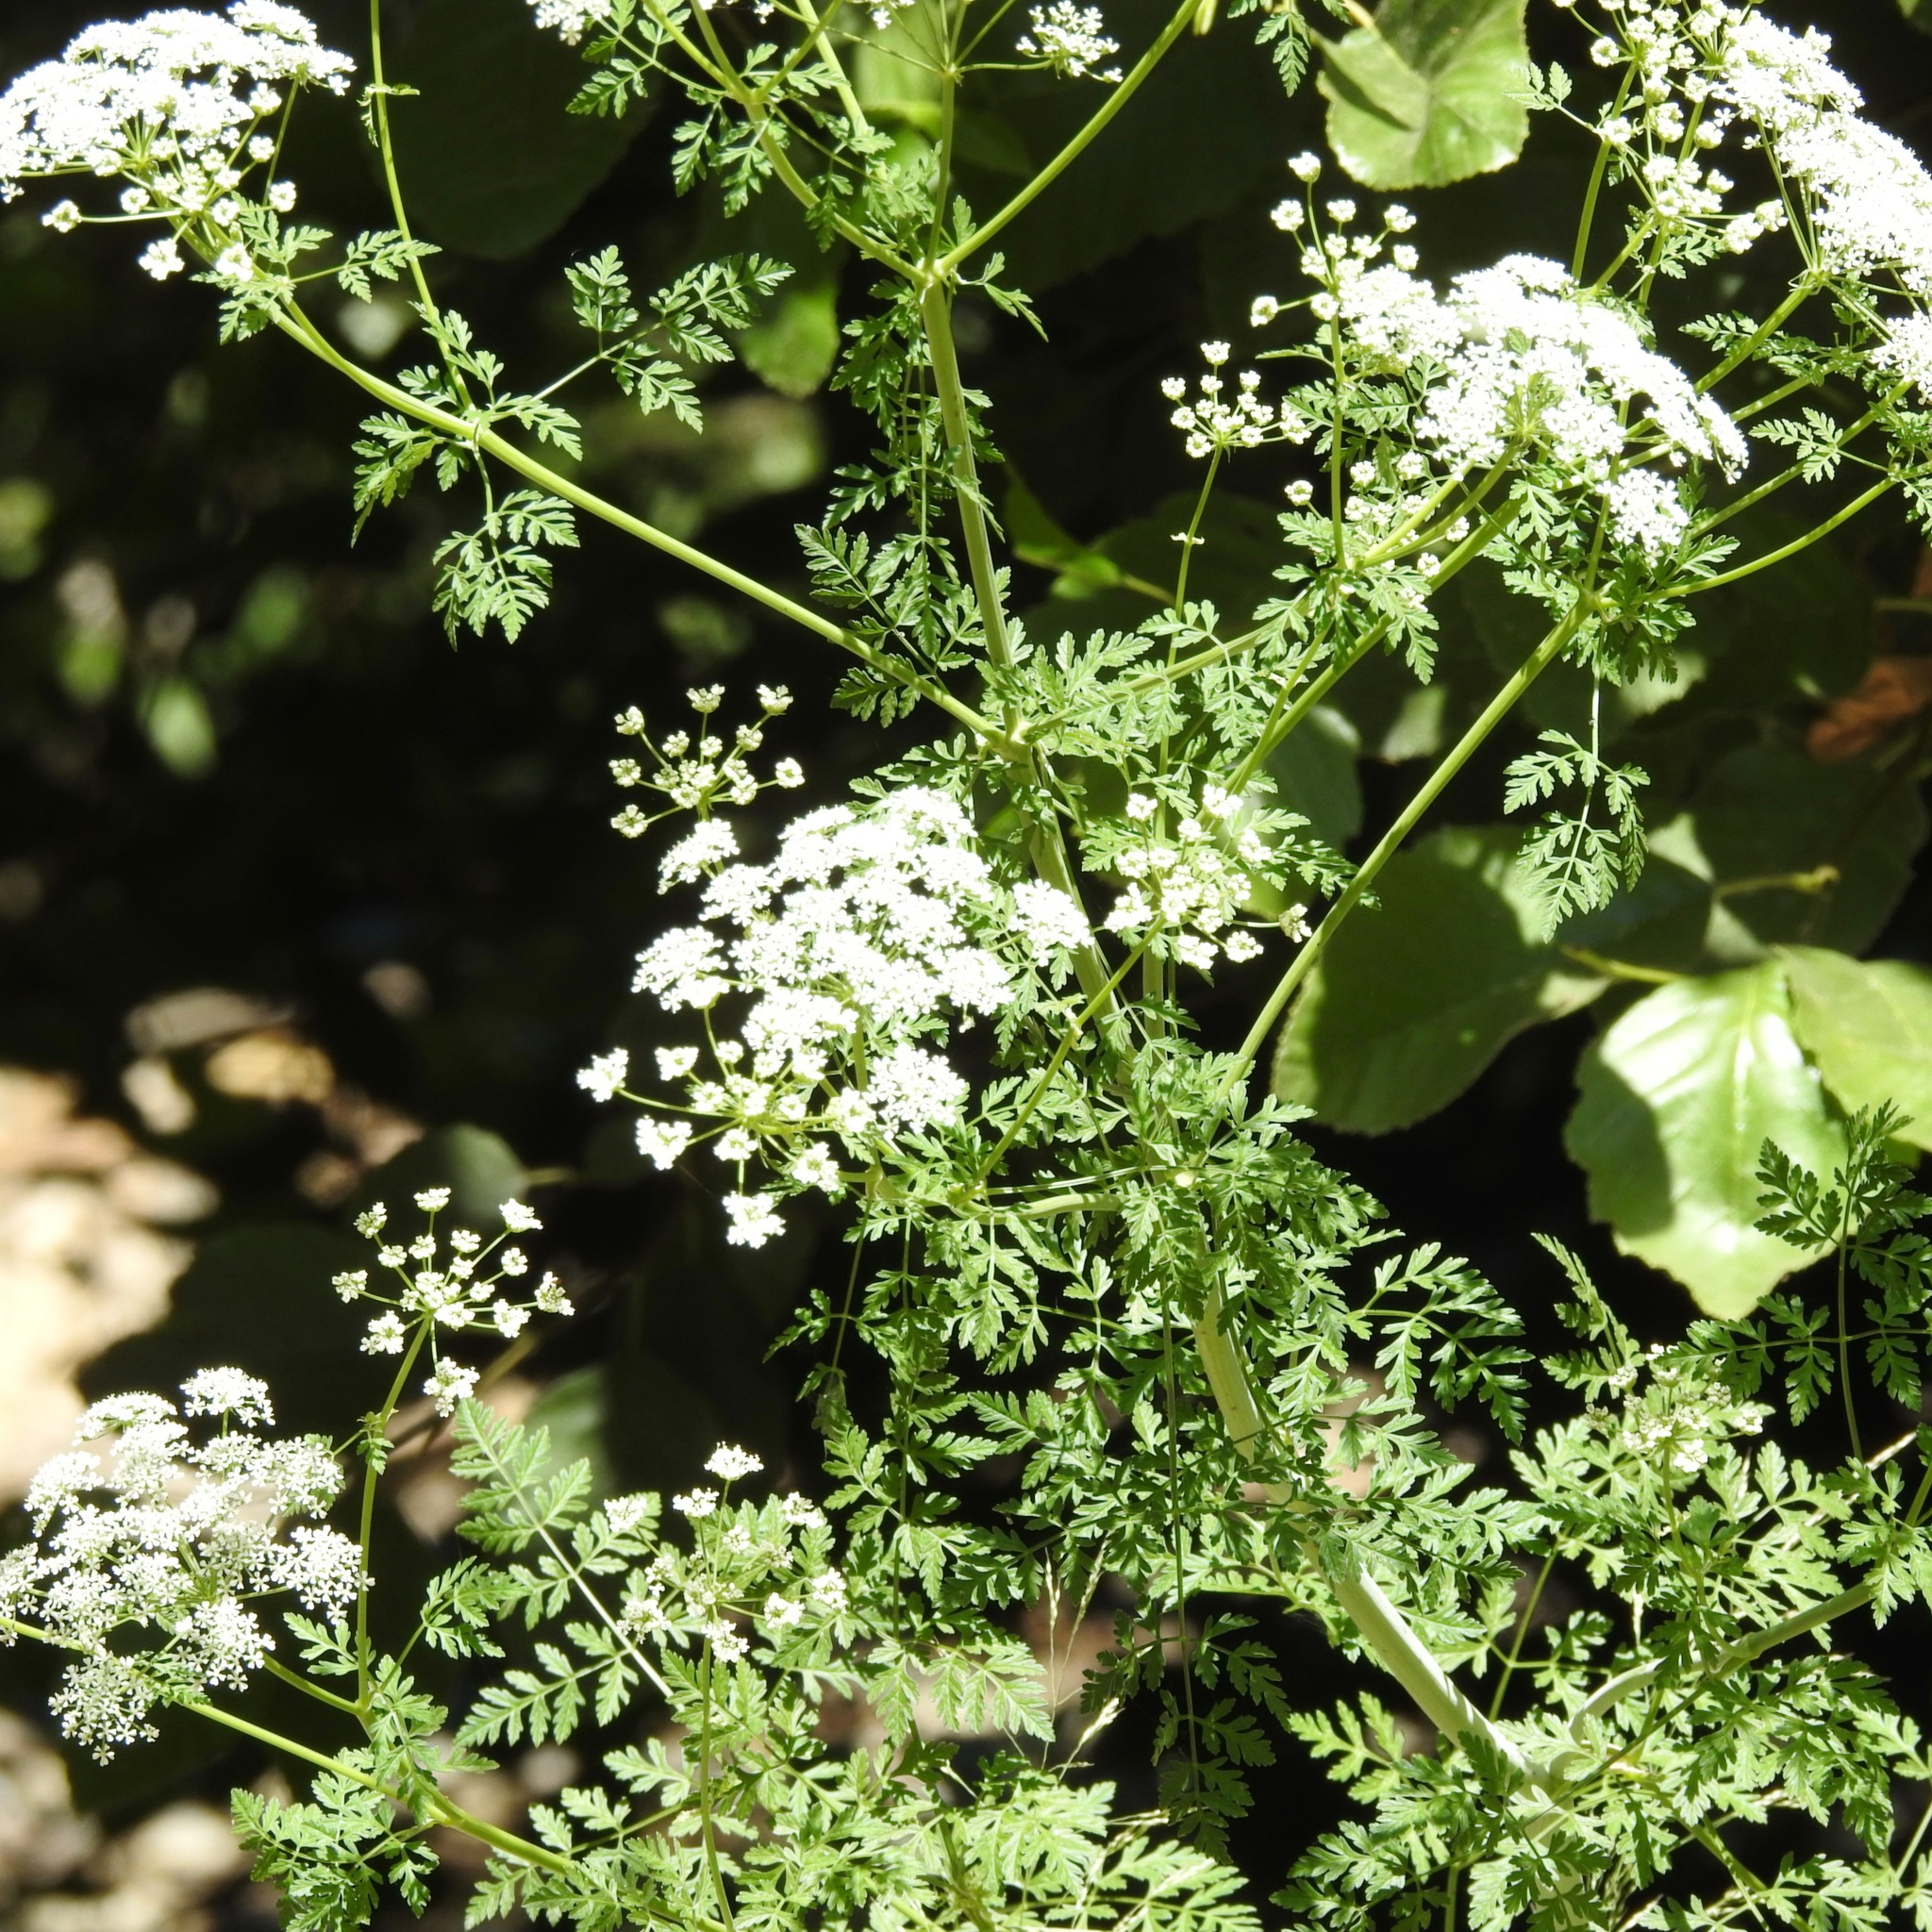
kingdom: Plantae
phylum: Tracheophyta
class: Magnoliopsida
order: Apiales
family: Apiaceae
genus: Conium
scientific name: Conium maculatum
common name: Hemlock
